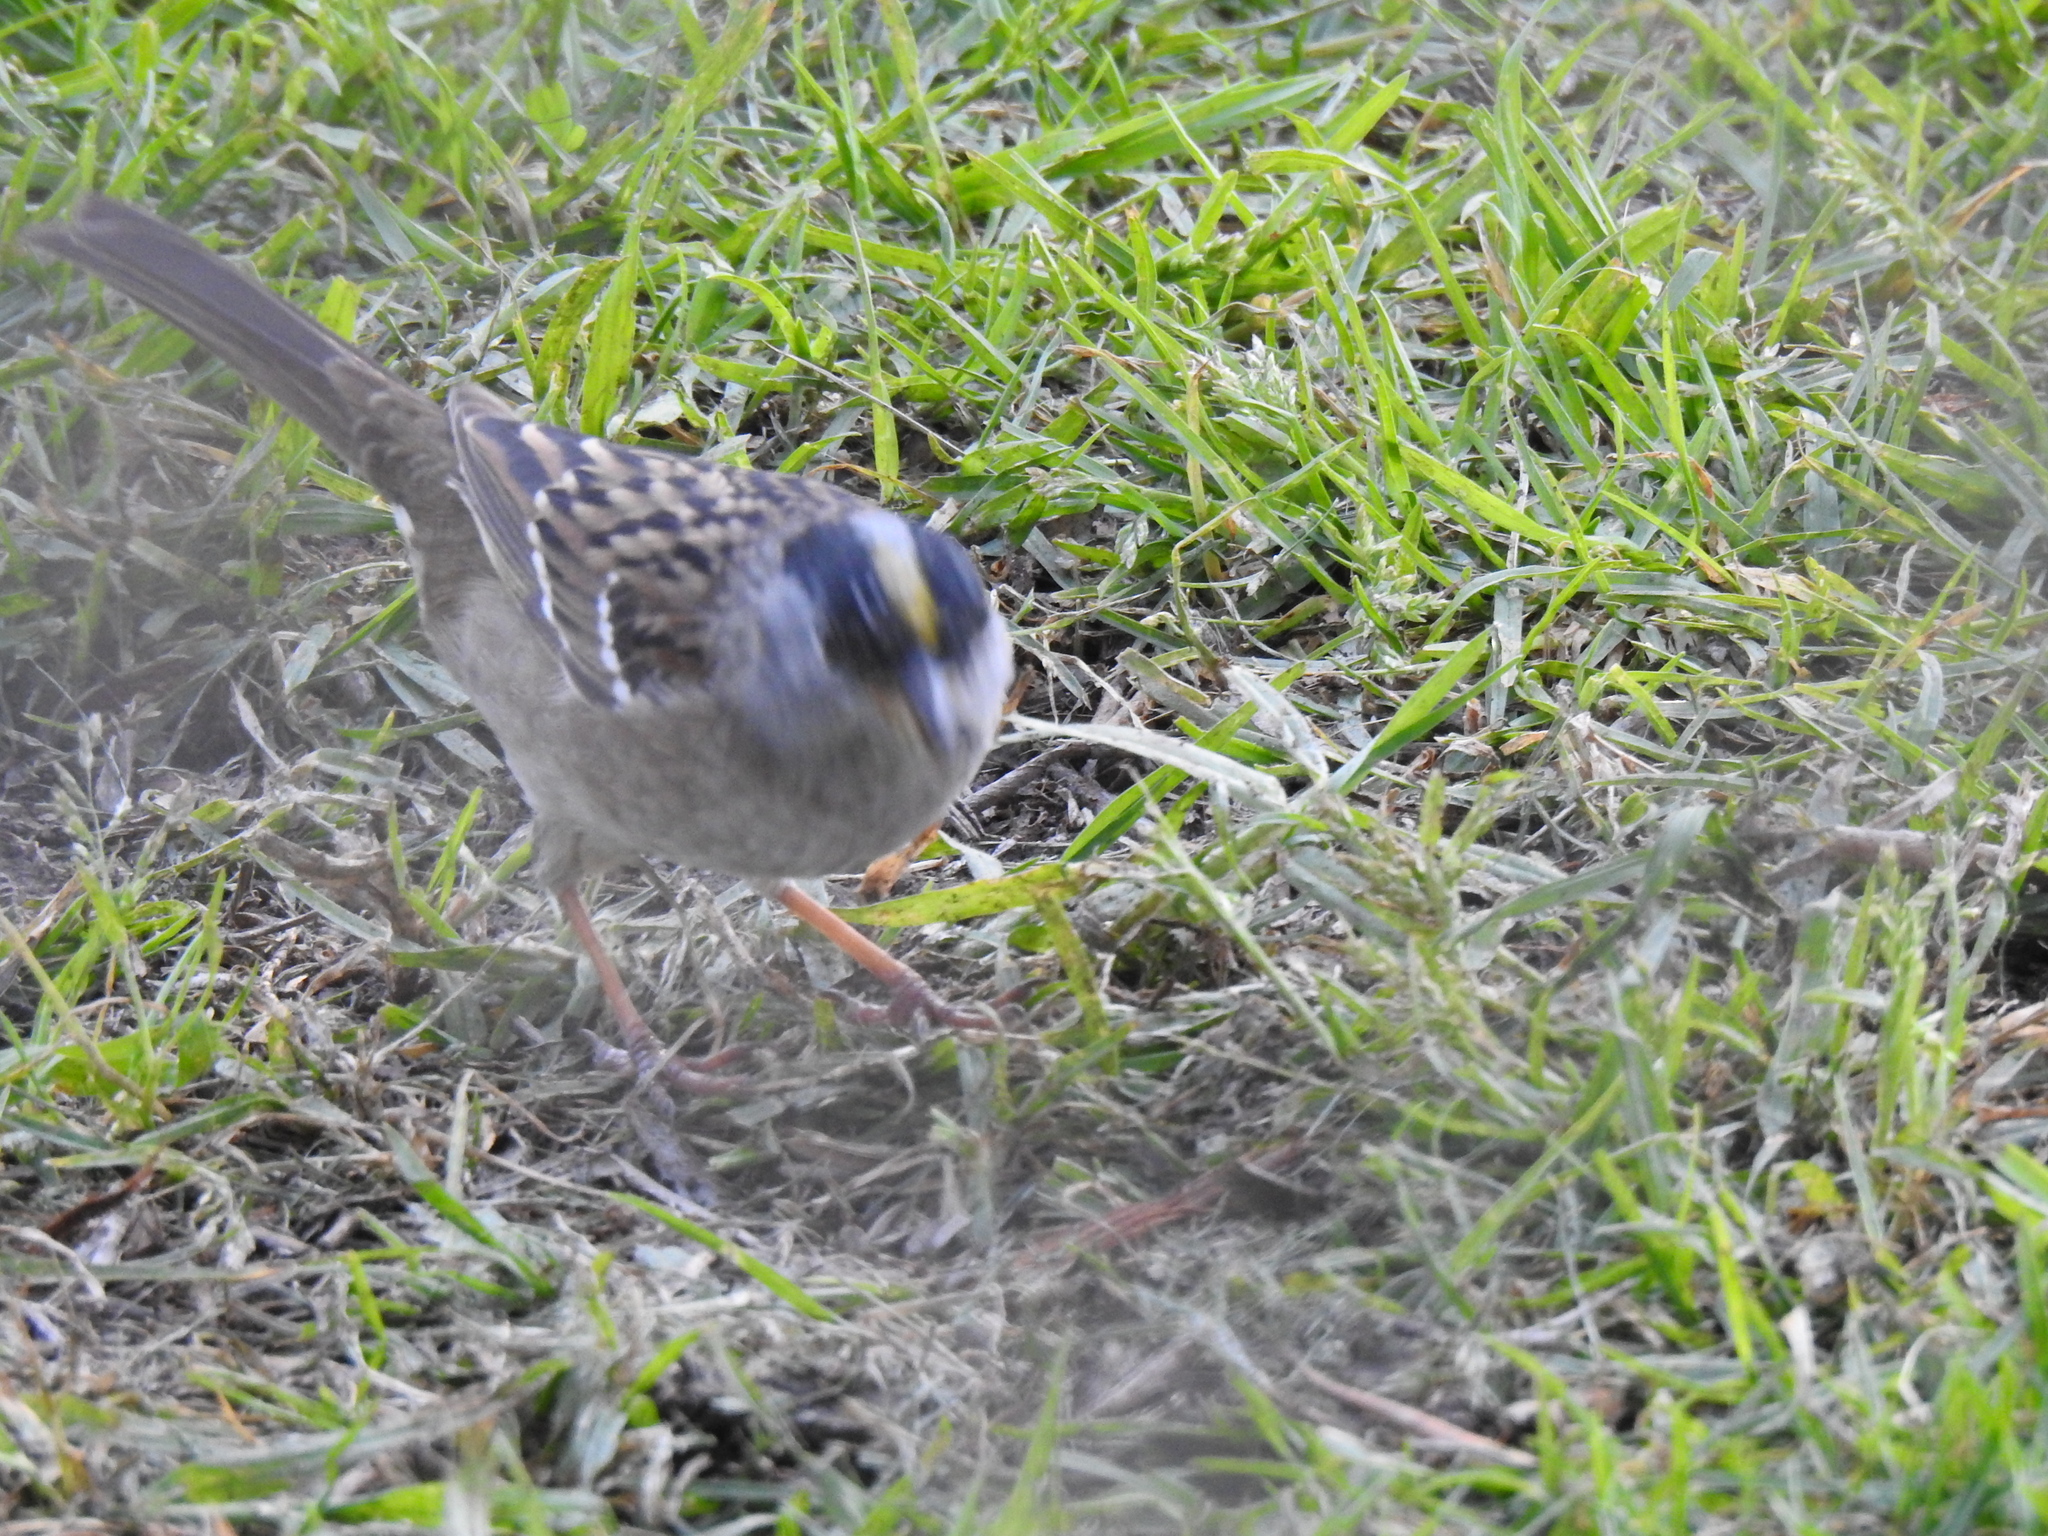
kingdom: Animalia
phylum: Chordata
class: Aves
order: Passeriformes
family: Passerellidae
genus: Zonotrichia
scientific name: Zonotrichia atricapilla
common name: Golden-crowned sparrow
